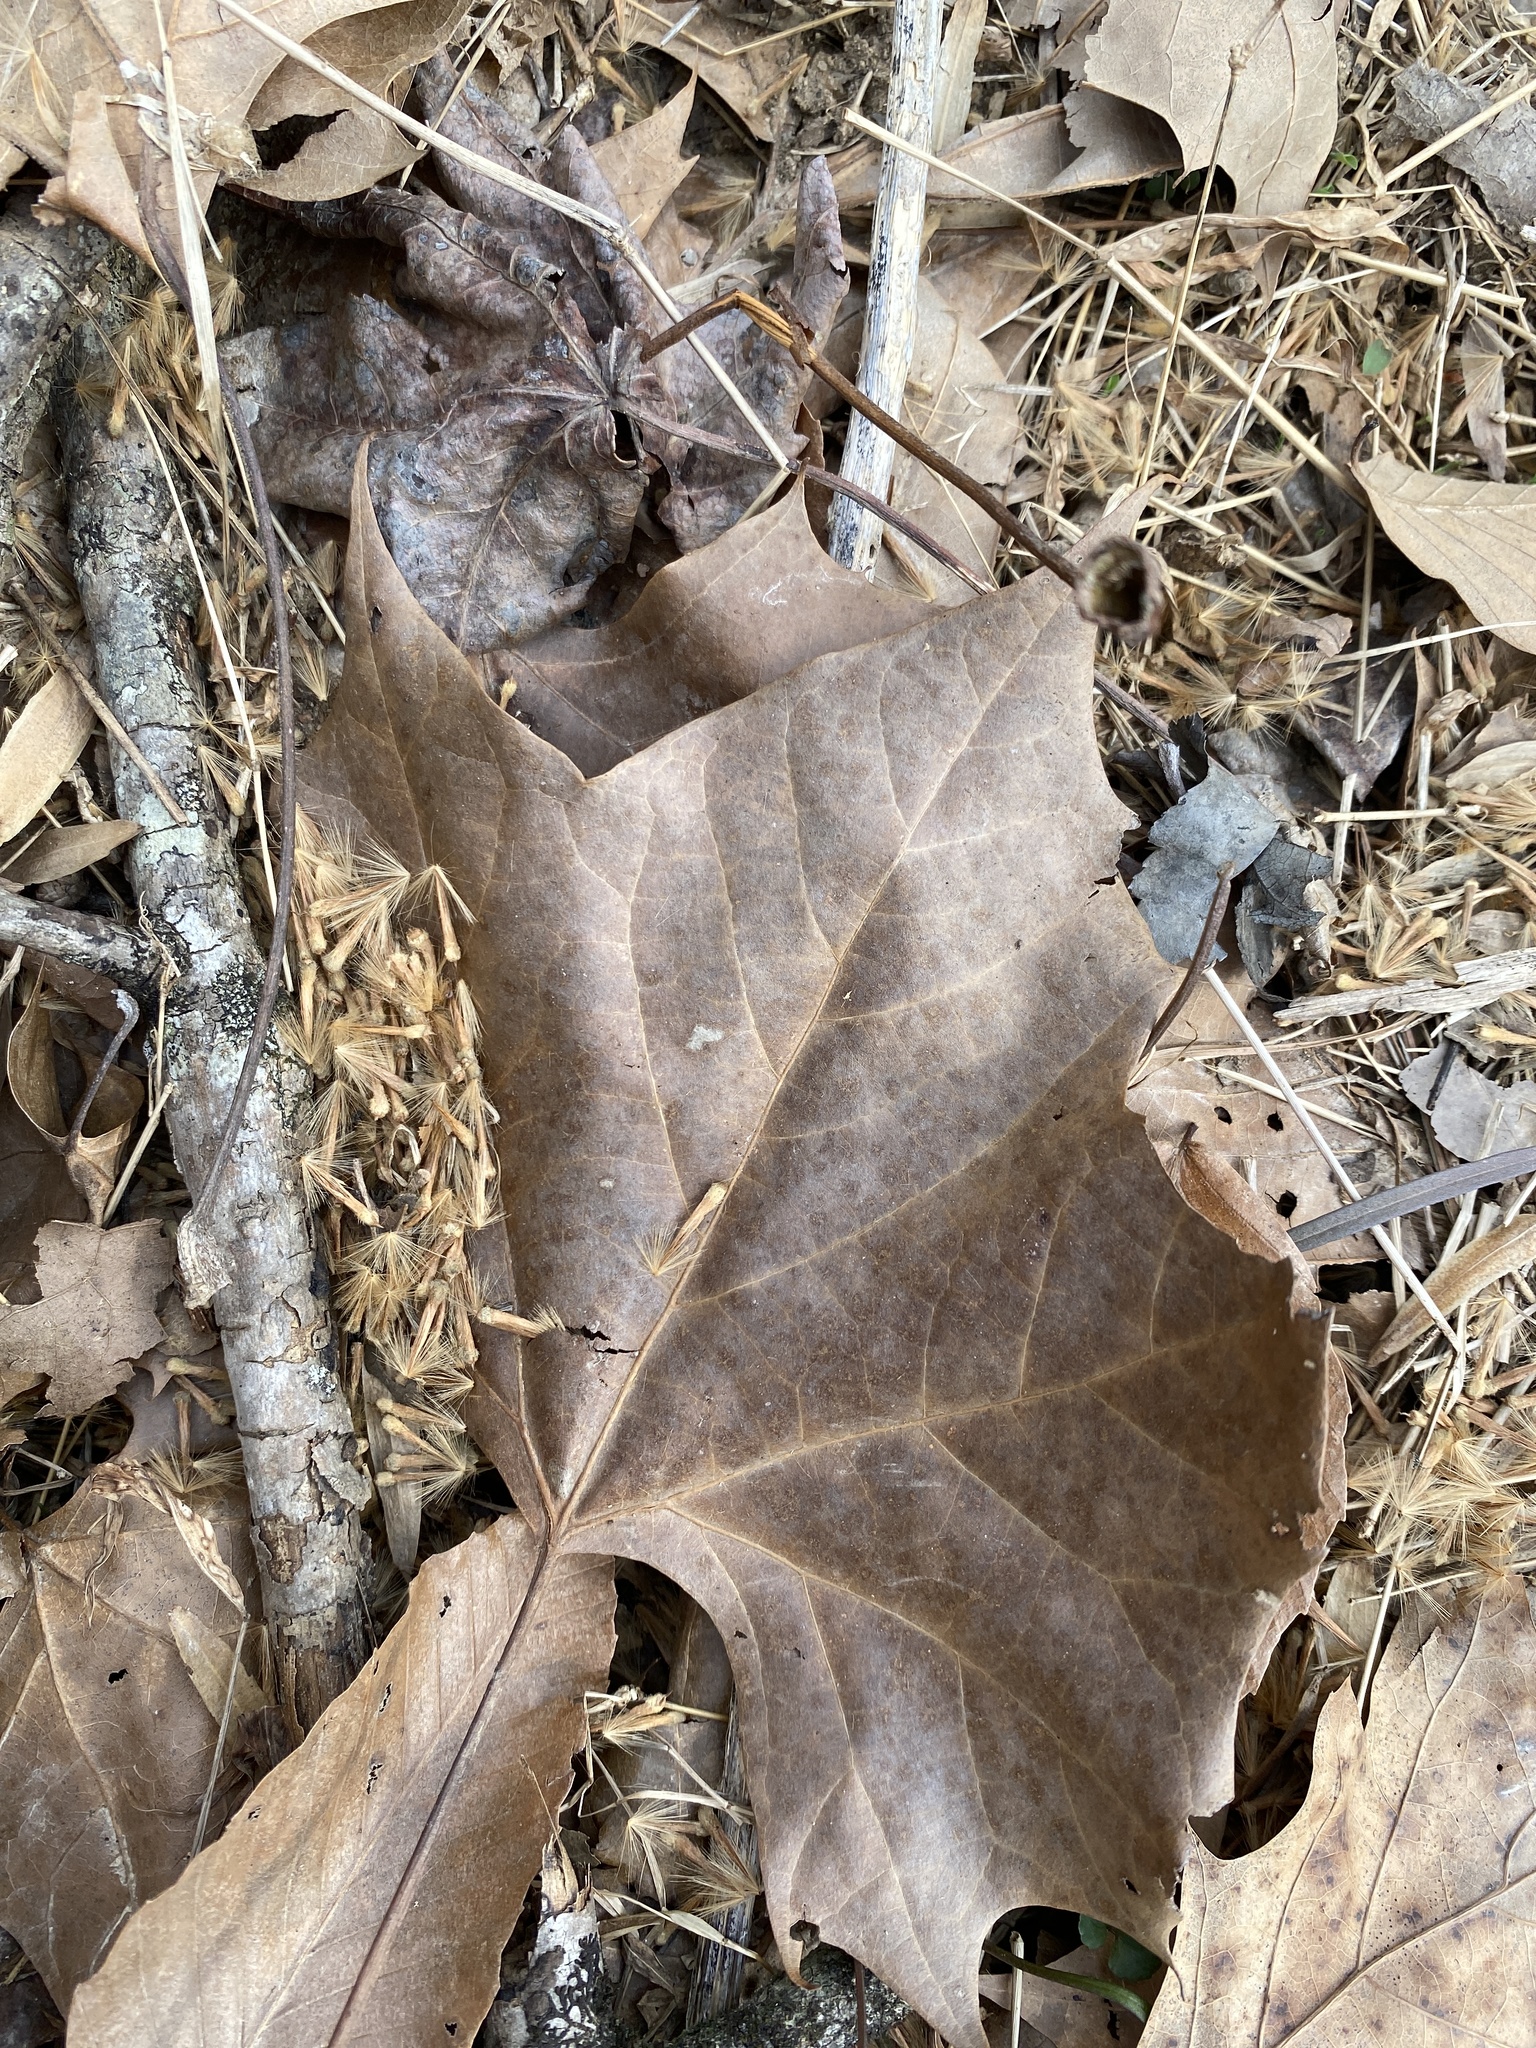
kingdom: Plantae
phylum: Tracheophyta
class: Magnoliopsida
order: Proteales
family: Platanaceae
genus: Platanus
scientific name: Platanus occidentalis
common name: American sycamore
